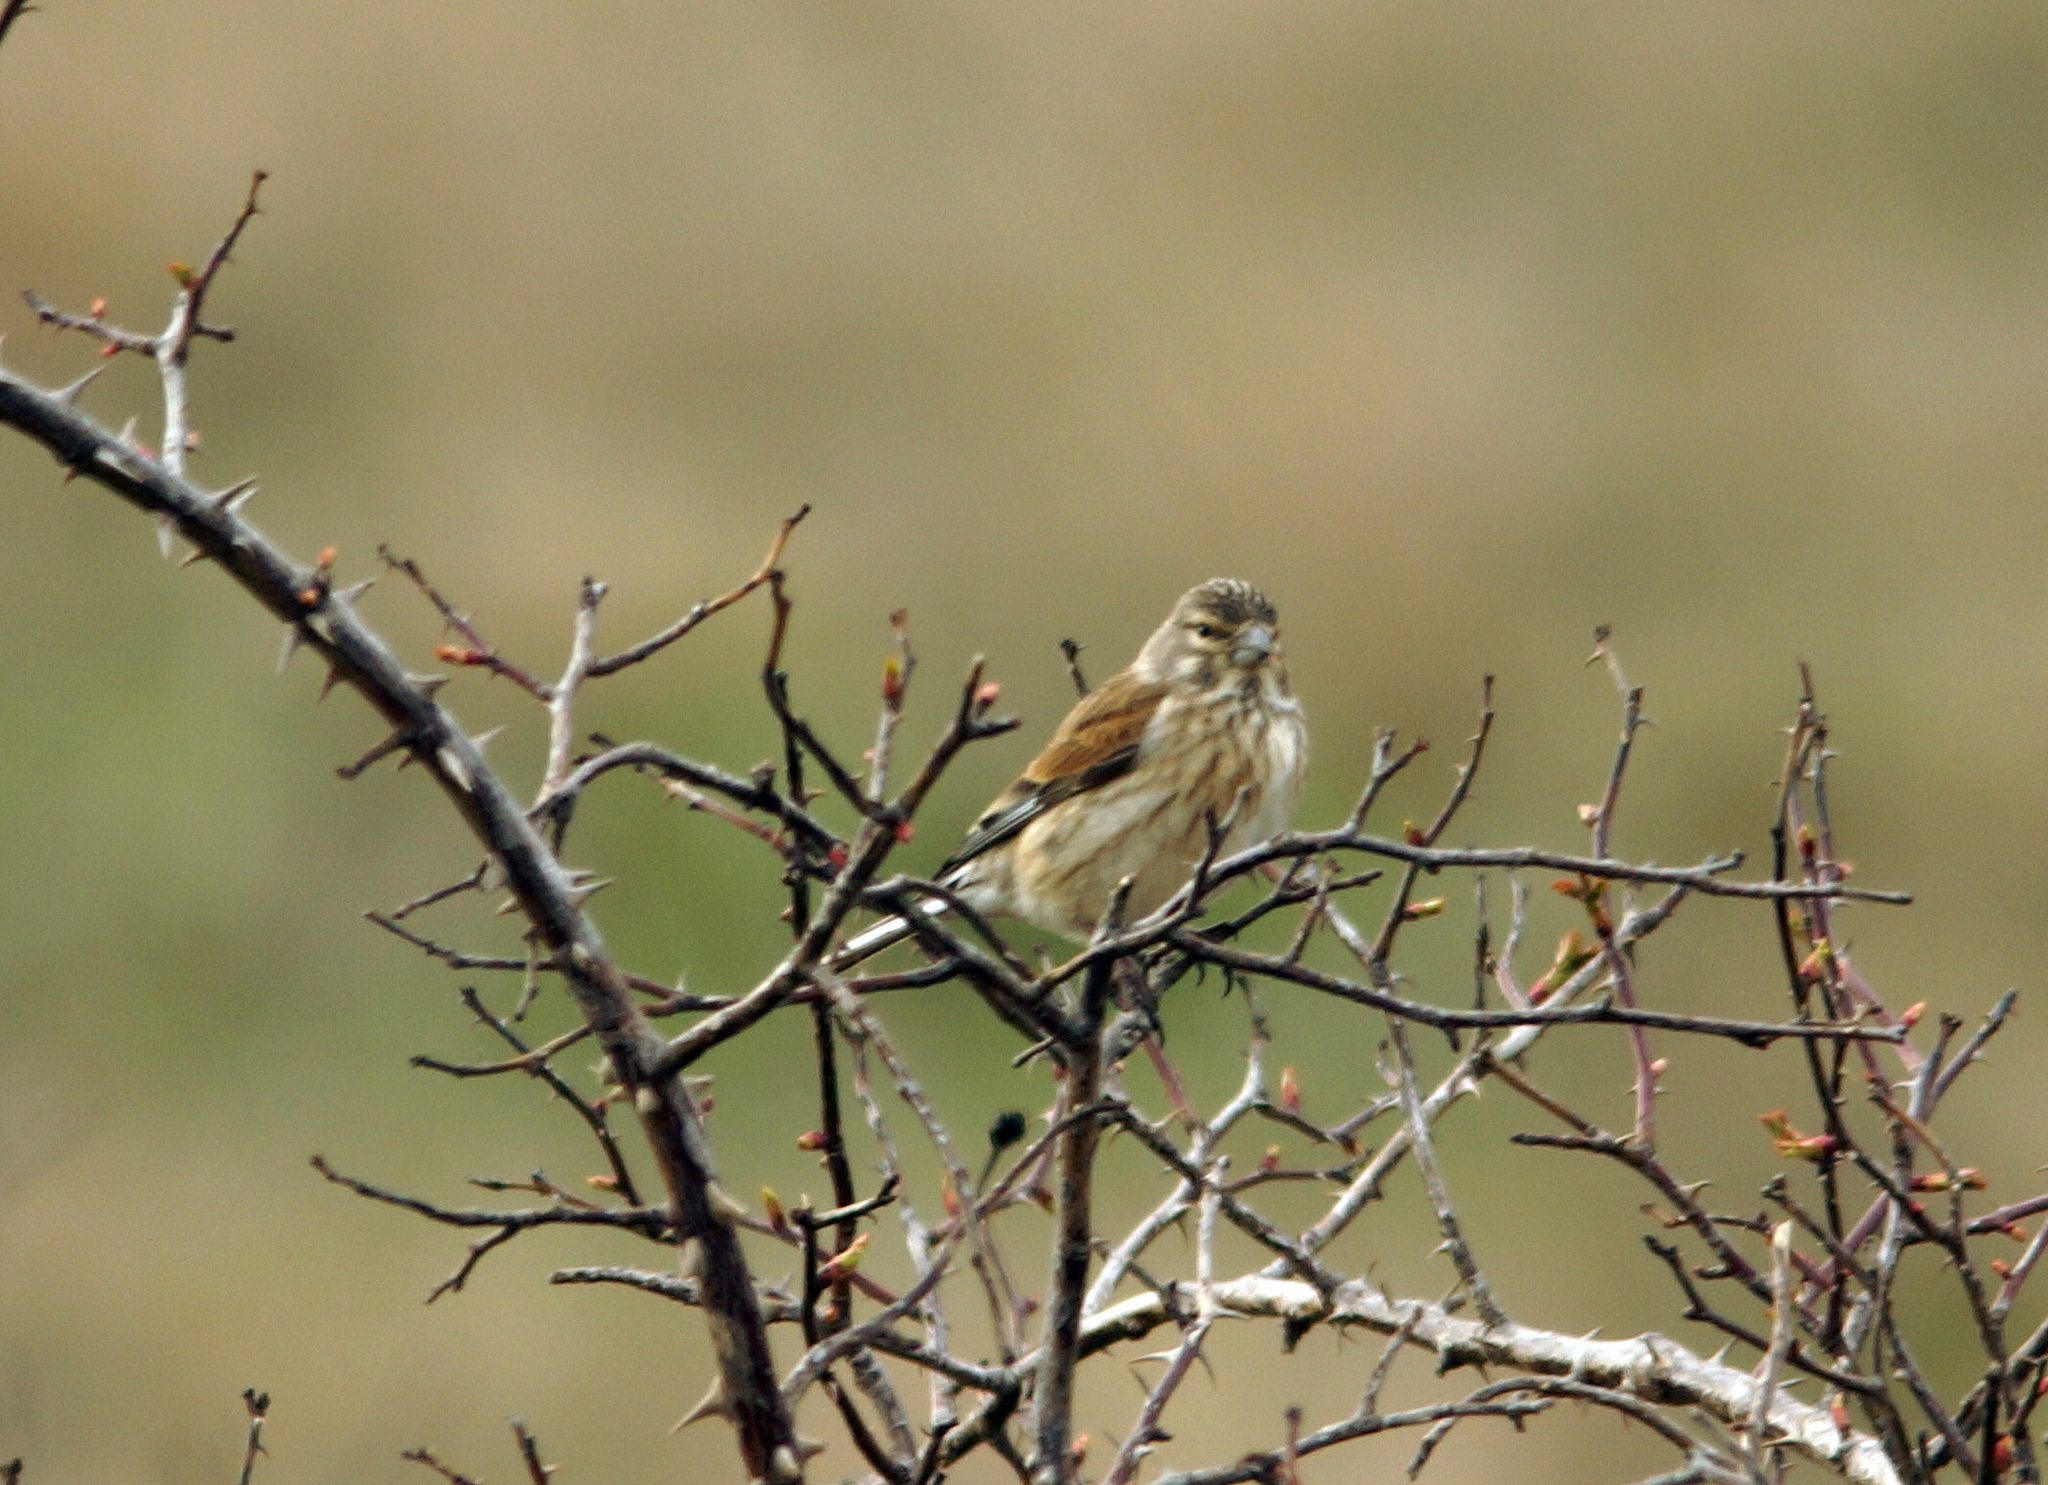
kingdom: Animalia
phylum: Chordata
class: Aves
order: Passeriformes
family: Fringillidae
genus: Linaria
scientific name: Linaria cannabina
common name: Common linnet
